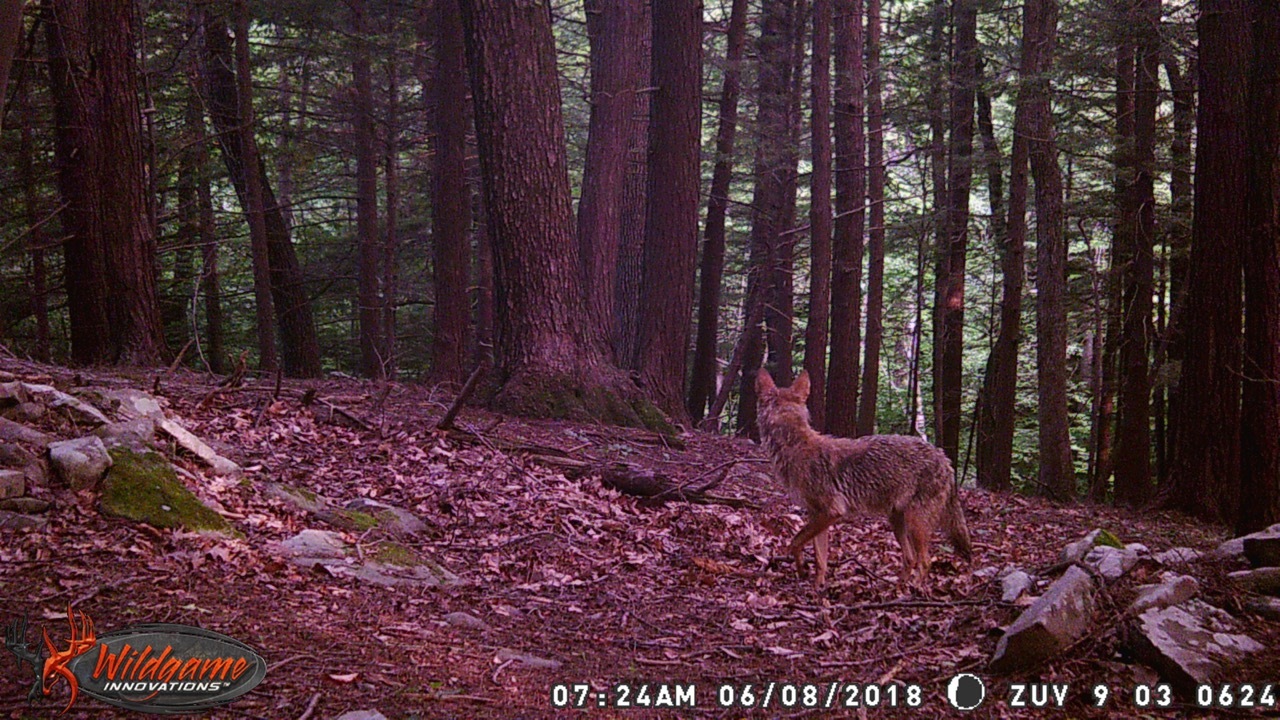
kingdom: Animalia
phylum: Chordata
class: Mammalia
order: Carnivora
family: Canidae
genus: Canis
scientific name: Canis latrans
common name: Coyote
